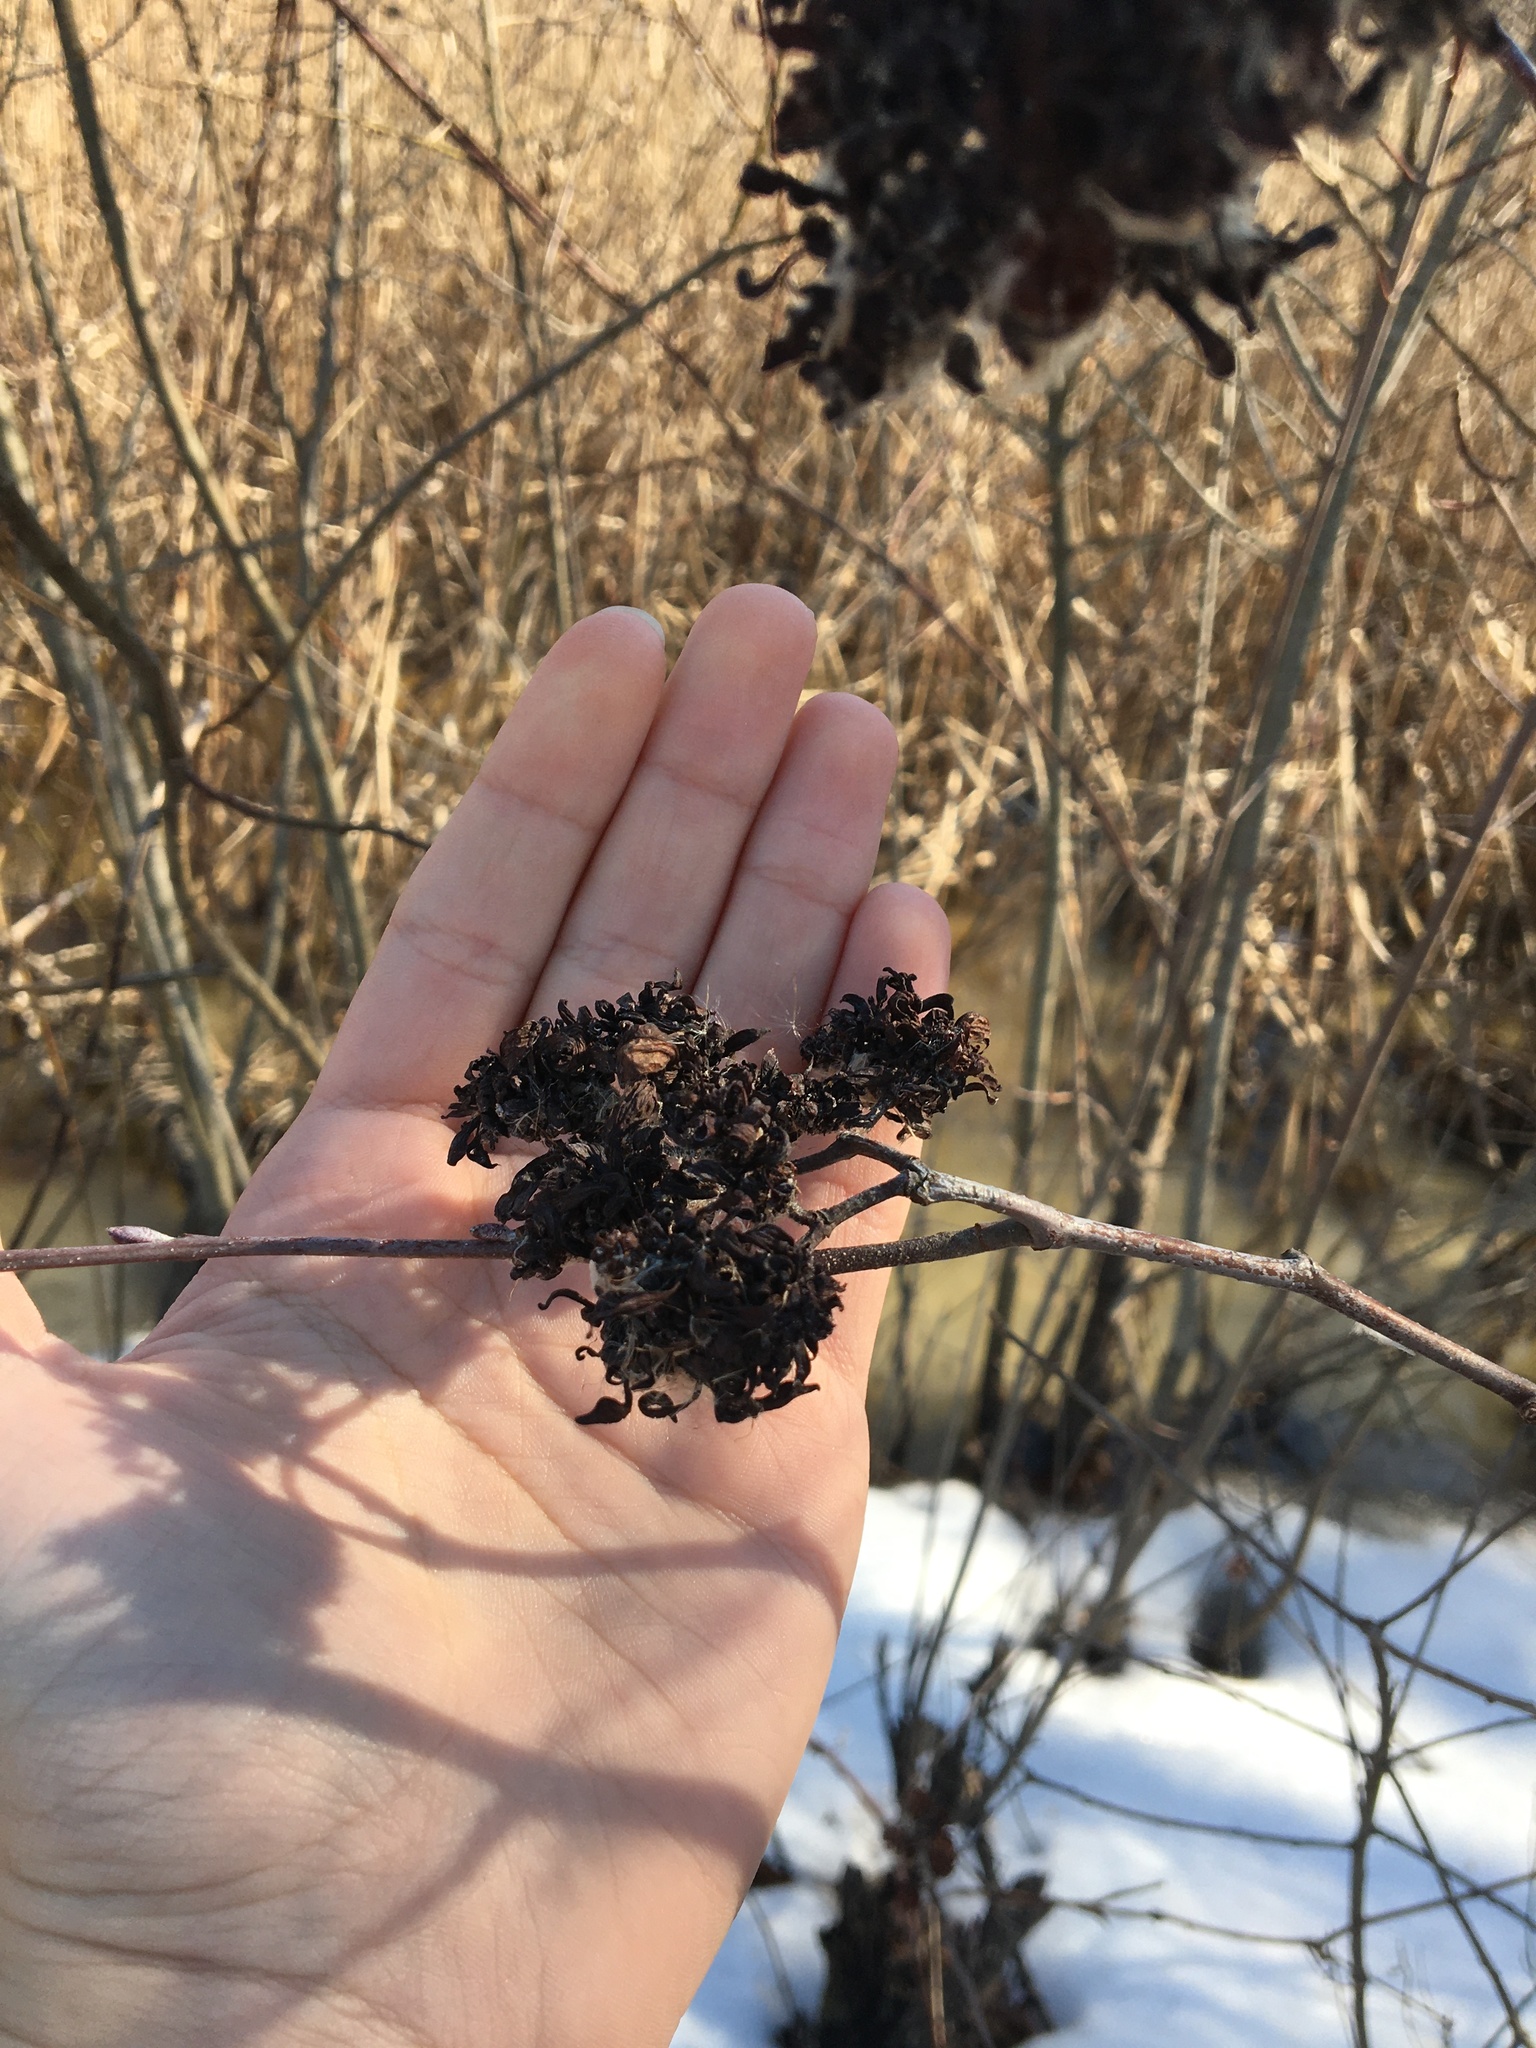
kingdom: Fungi
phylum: Ascomycota
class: Taphrinomycetes
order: Taphrinales
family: Taphrinaceae
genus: Taphrina
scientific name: Taphrina robinsoniana
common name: Eastern american alder tongue gall fungus
